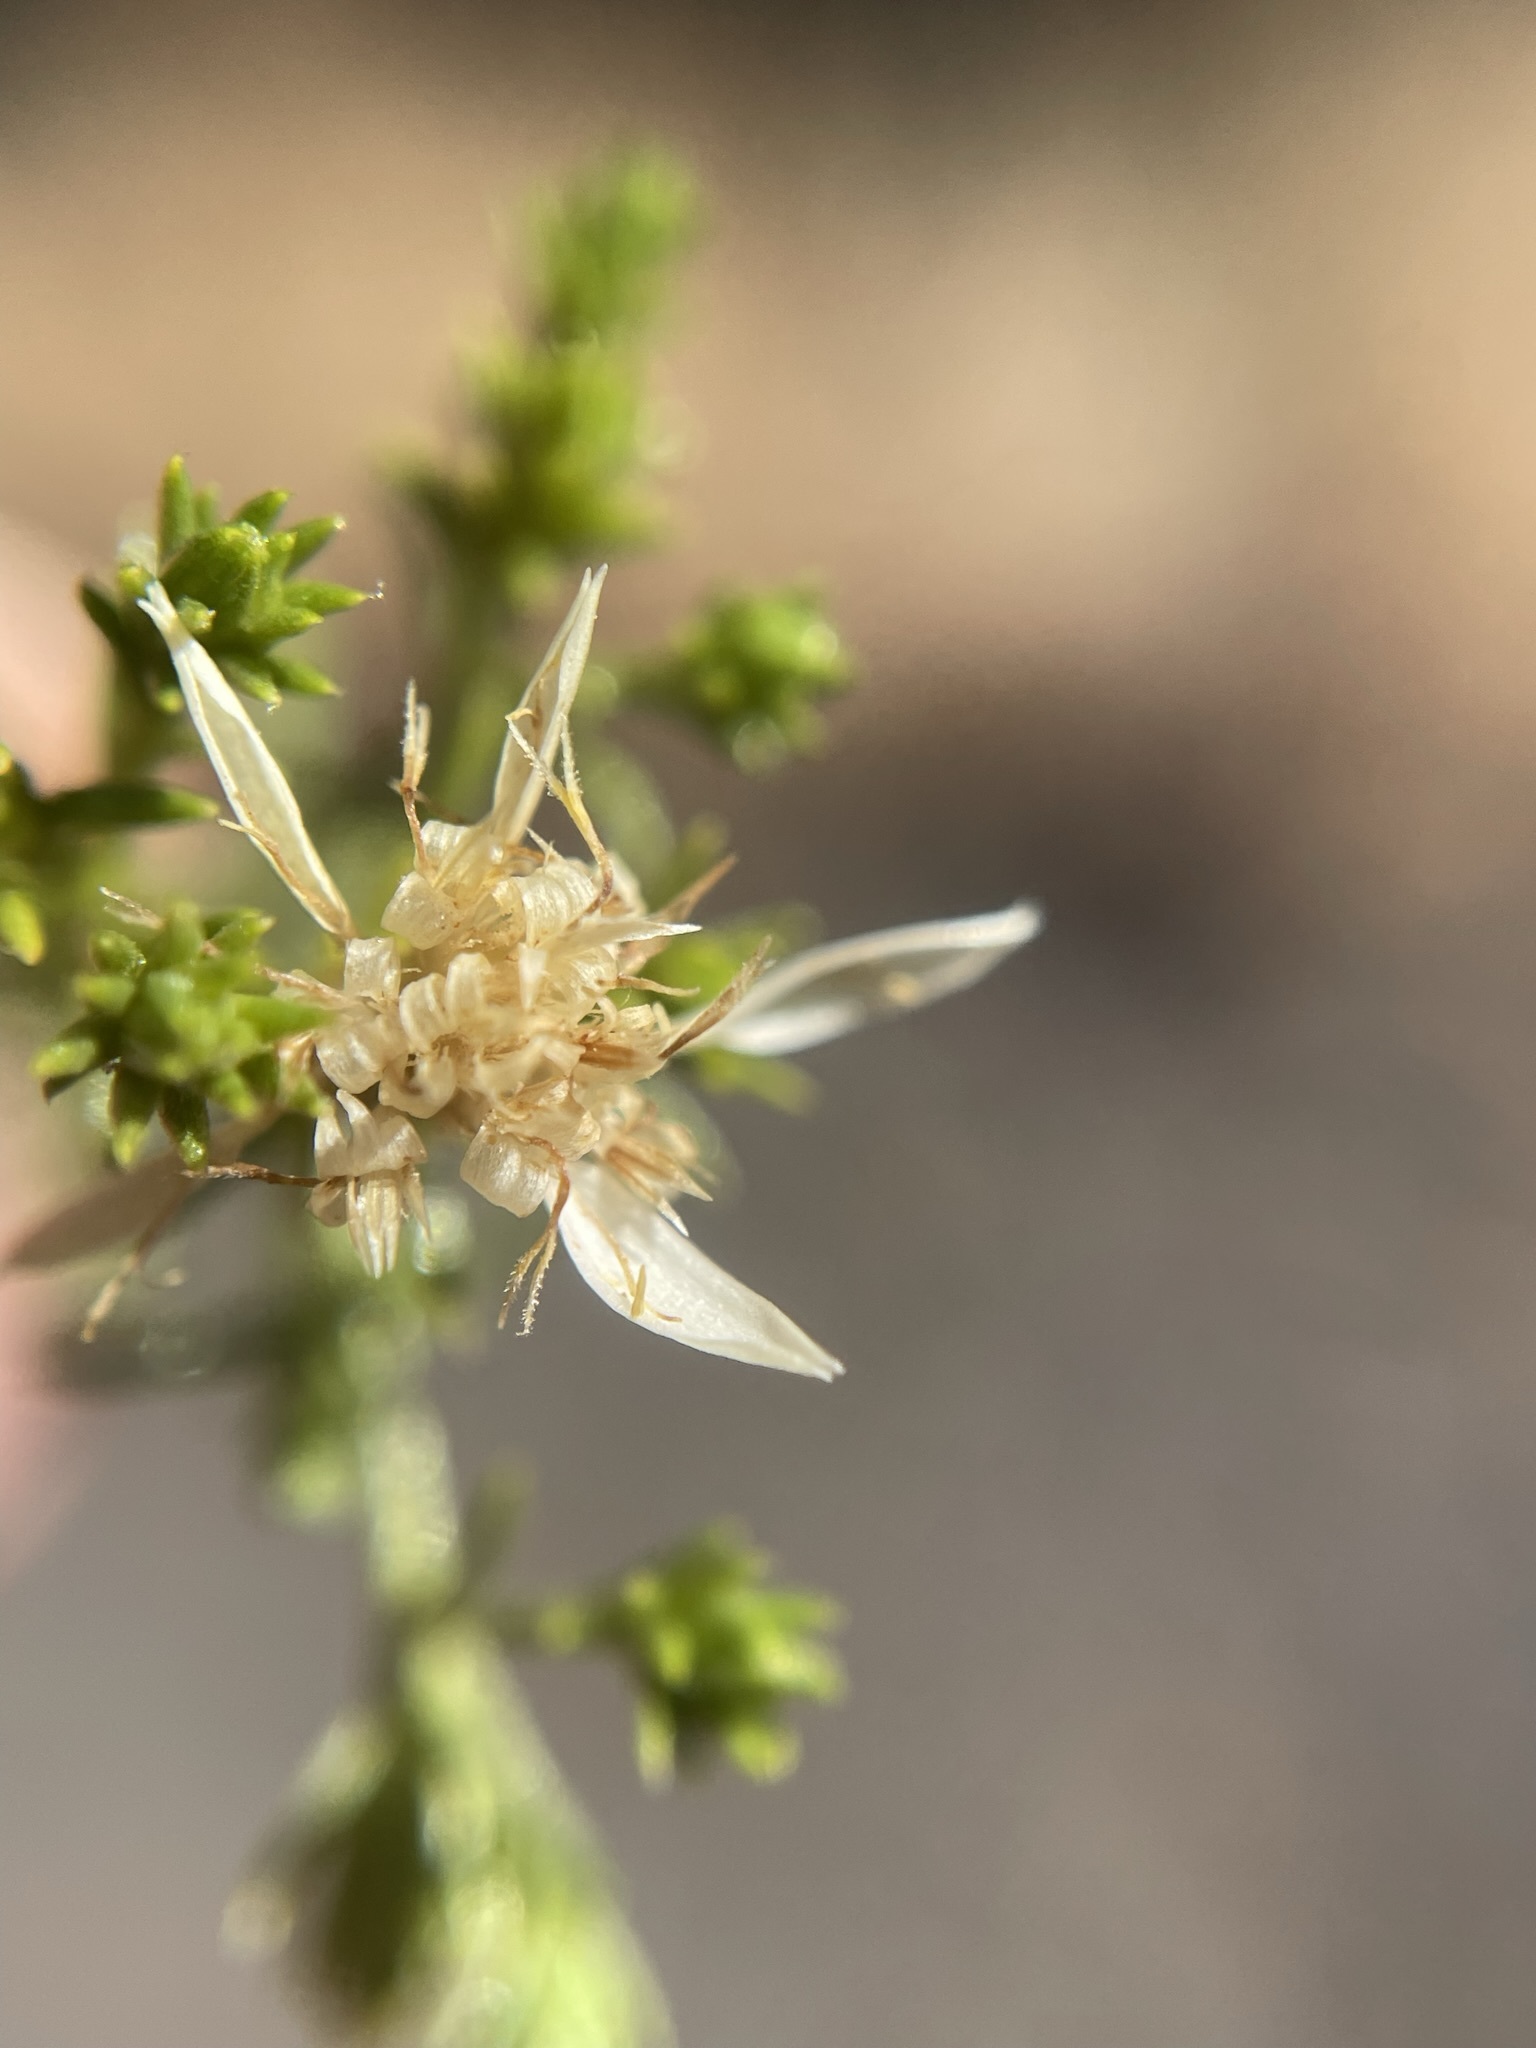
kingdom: Plantae
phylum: Tracheophyta
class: Magnoliopsida
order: Asterales
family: Asteraceae
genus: Ericameria
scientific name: Ericameria resinosa
